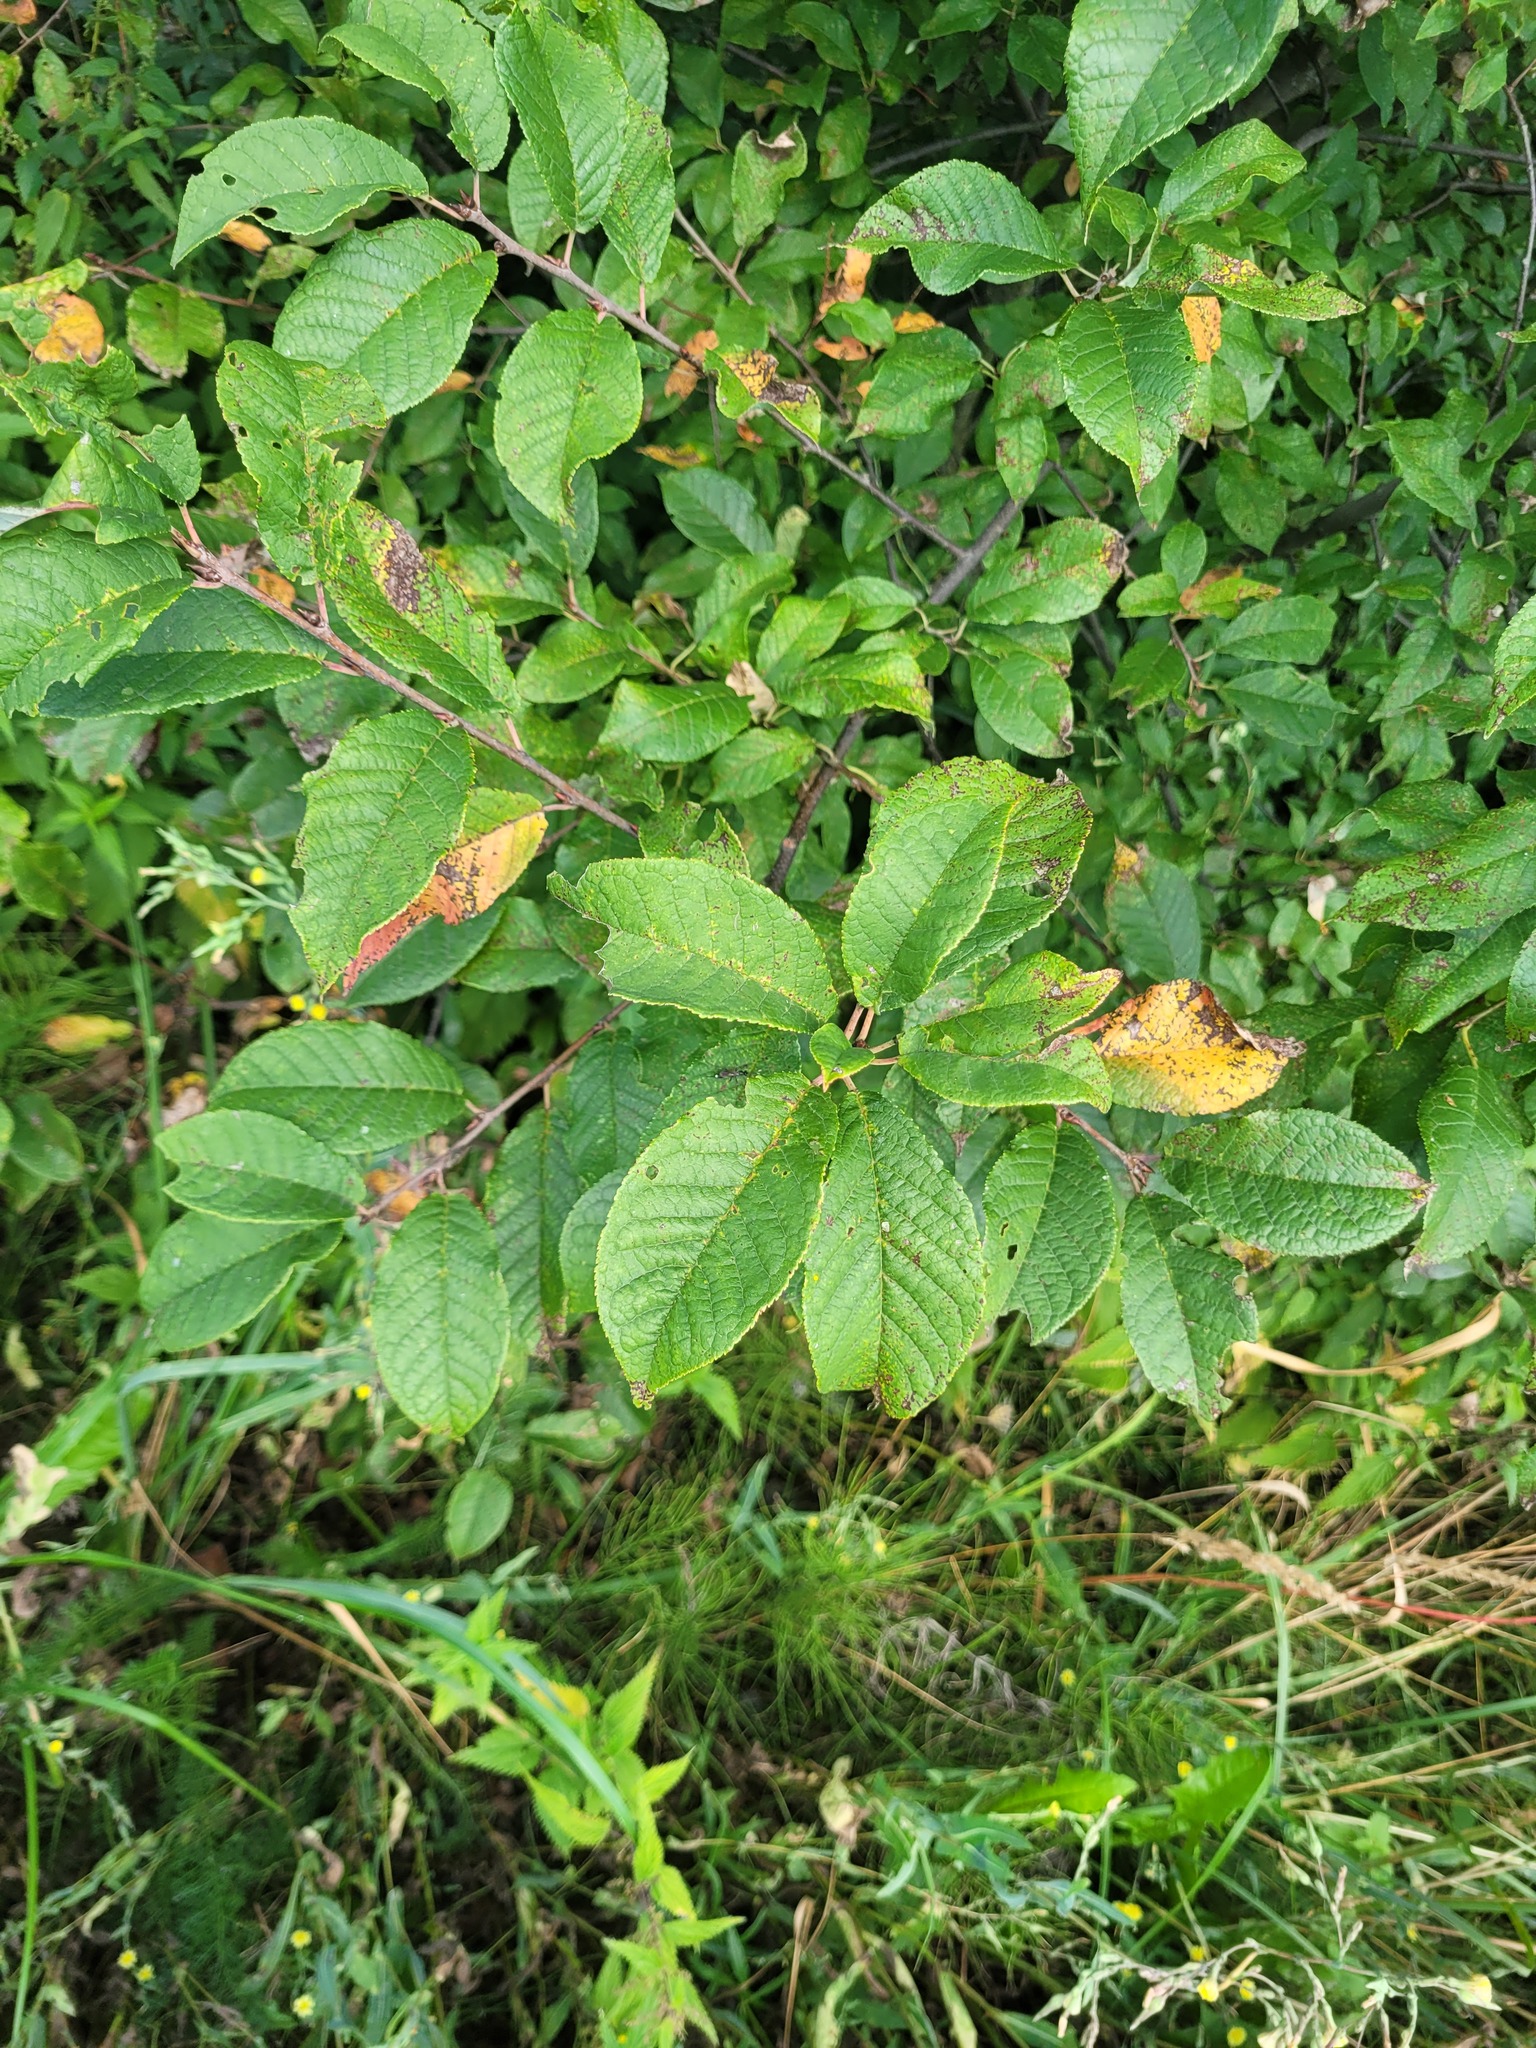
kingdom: Plantae
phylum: Tracheophyta
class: Magnoliopsida
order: Rosales
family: Rosaceae
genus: Prunus
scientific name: Prunus padus
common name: Bird cherry
